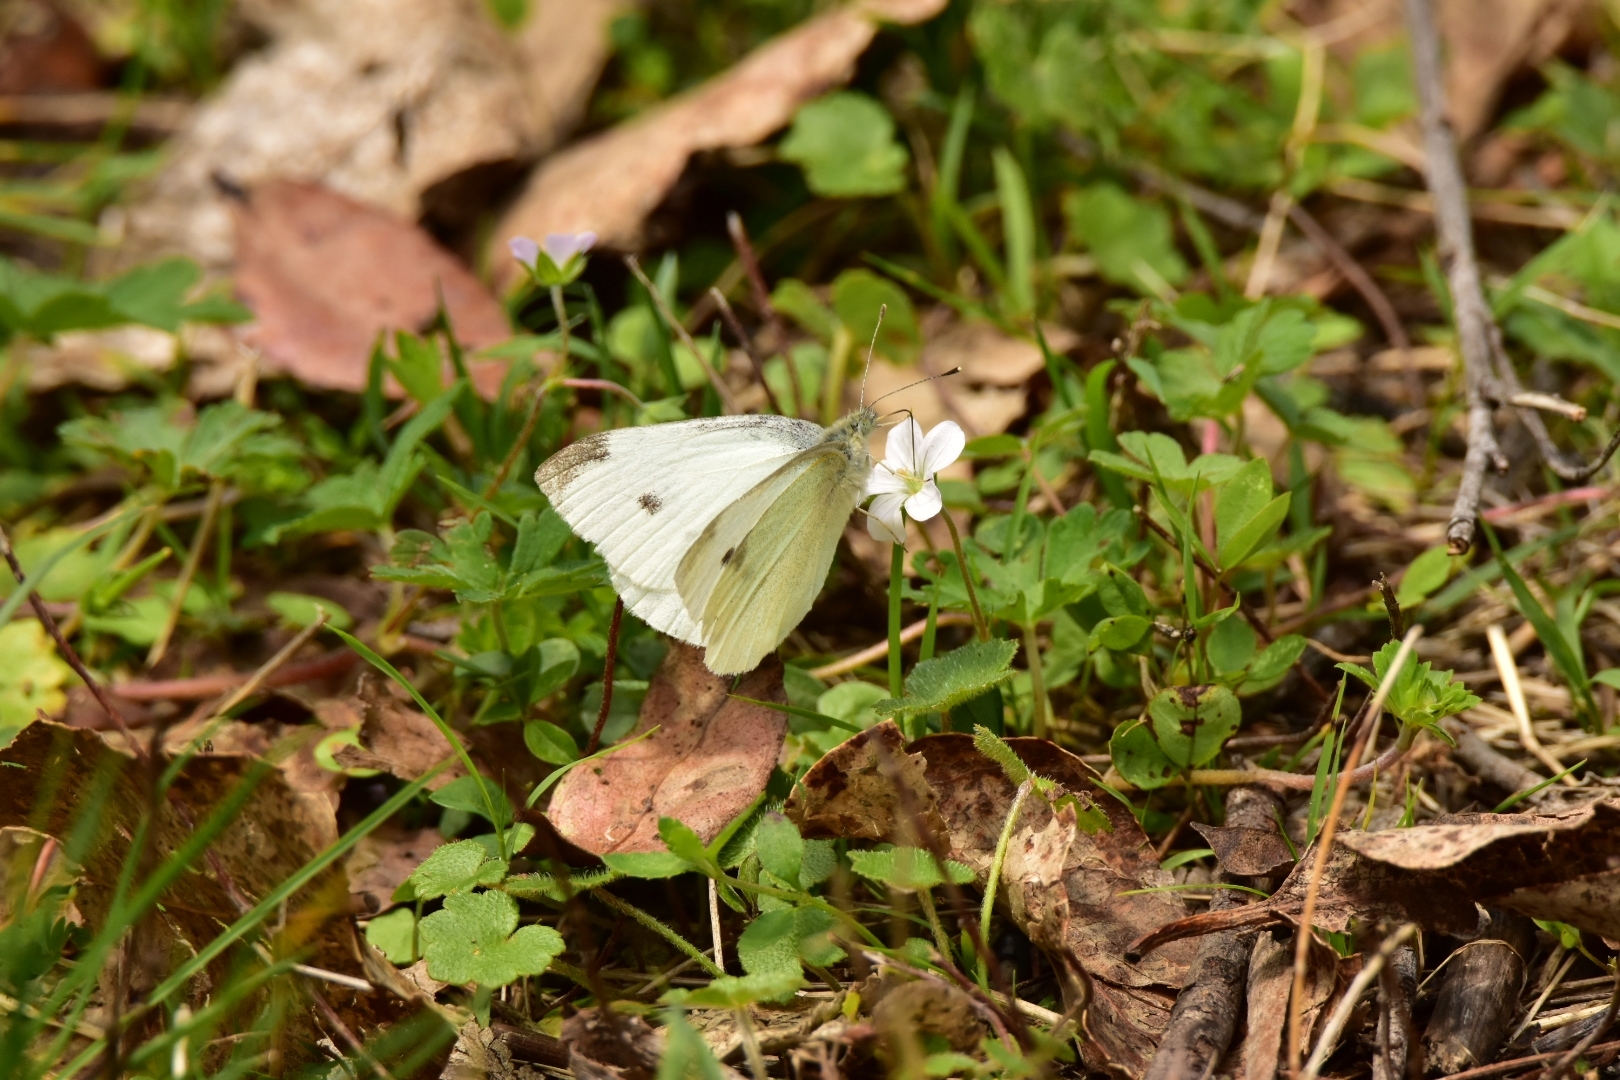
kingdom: Animalia
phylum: Arthropoda
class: Insecta
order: Lepidoptera
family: Pieridae
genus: Pieris
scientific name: Pieris rapae
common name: Small white
